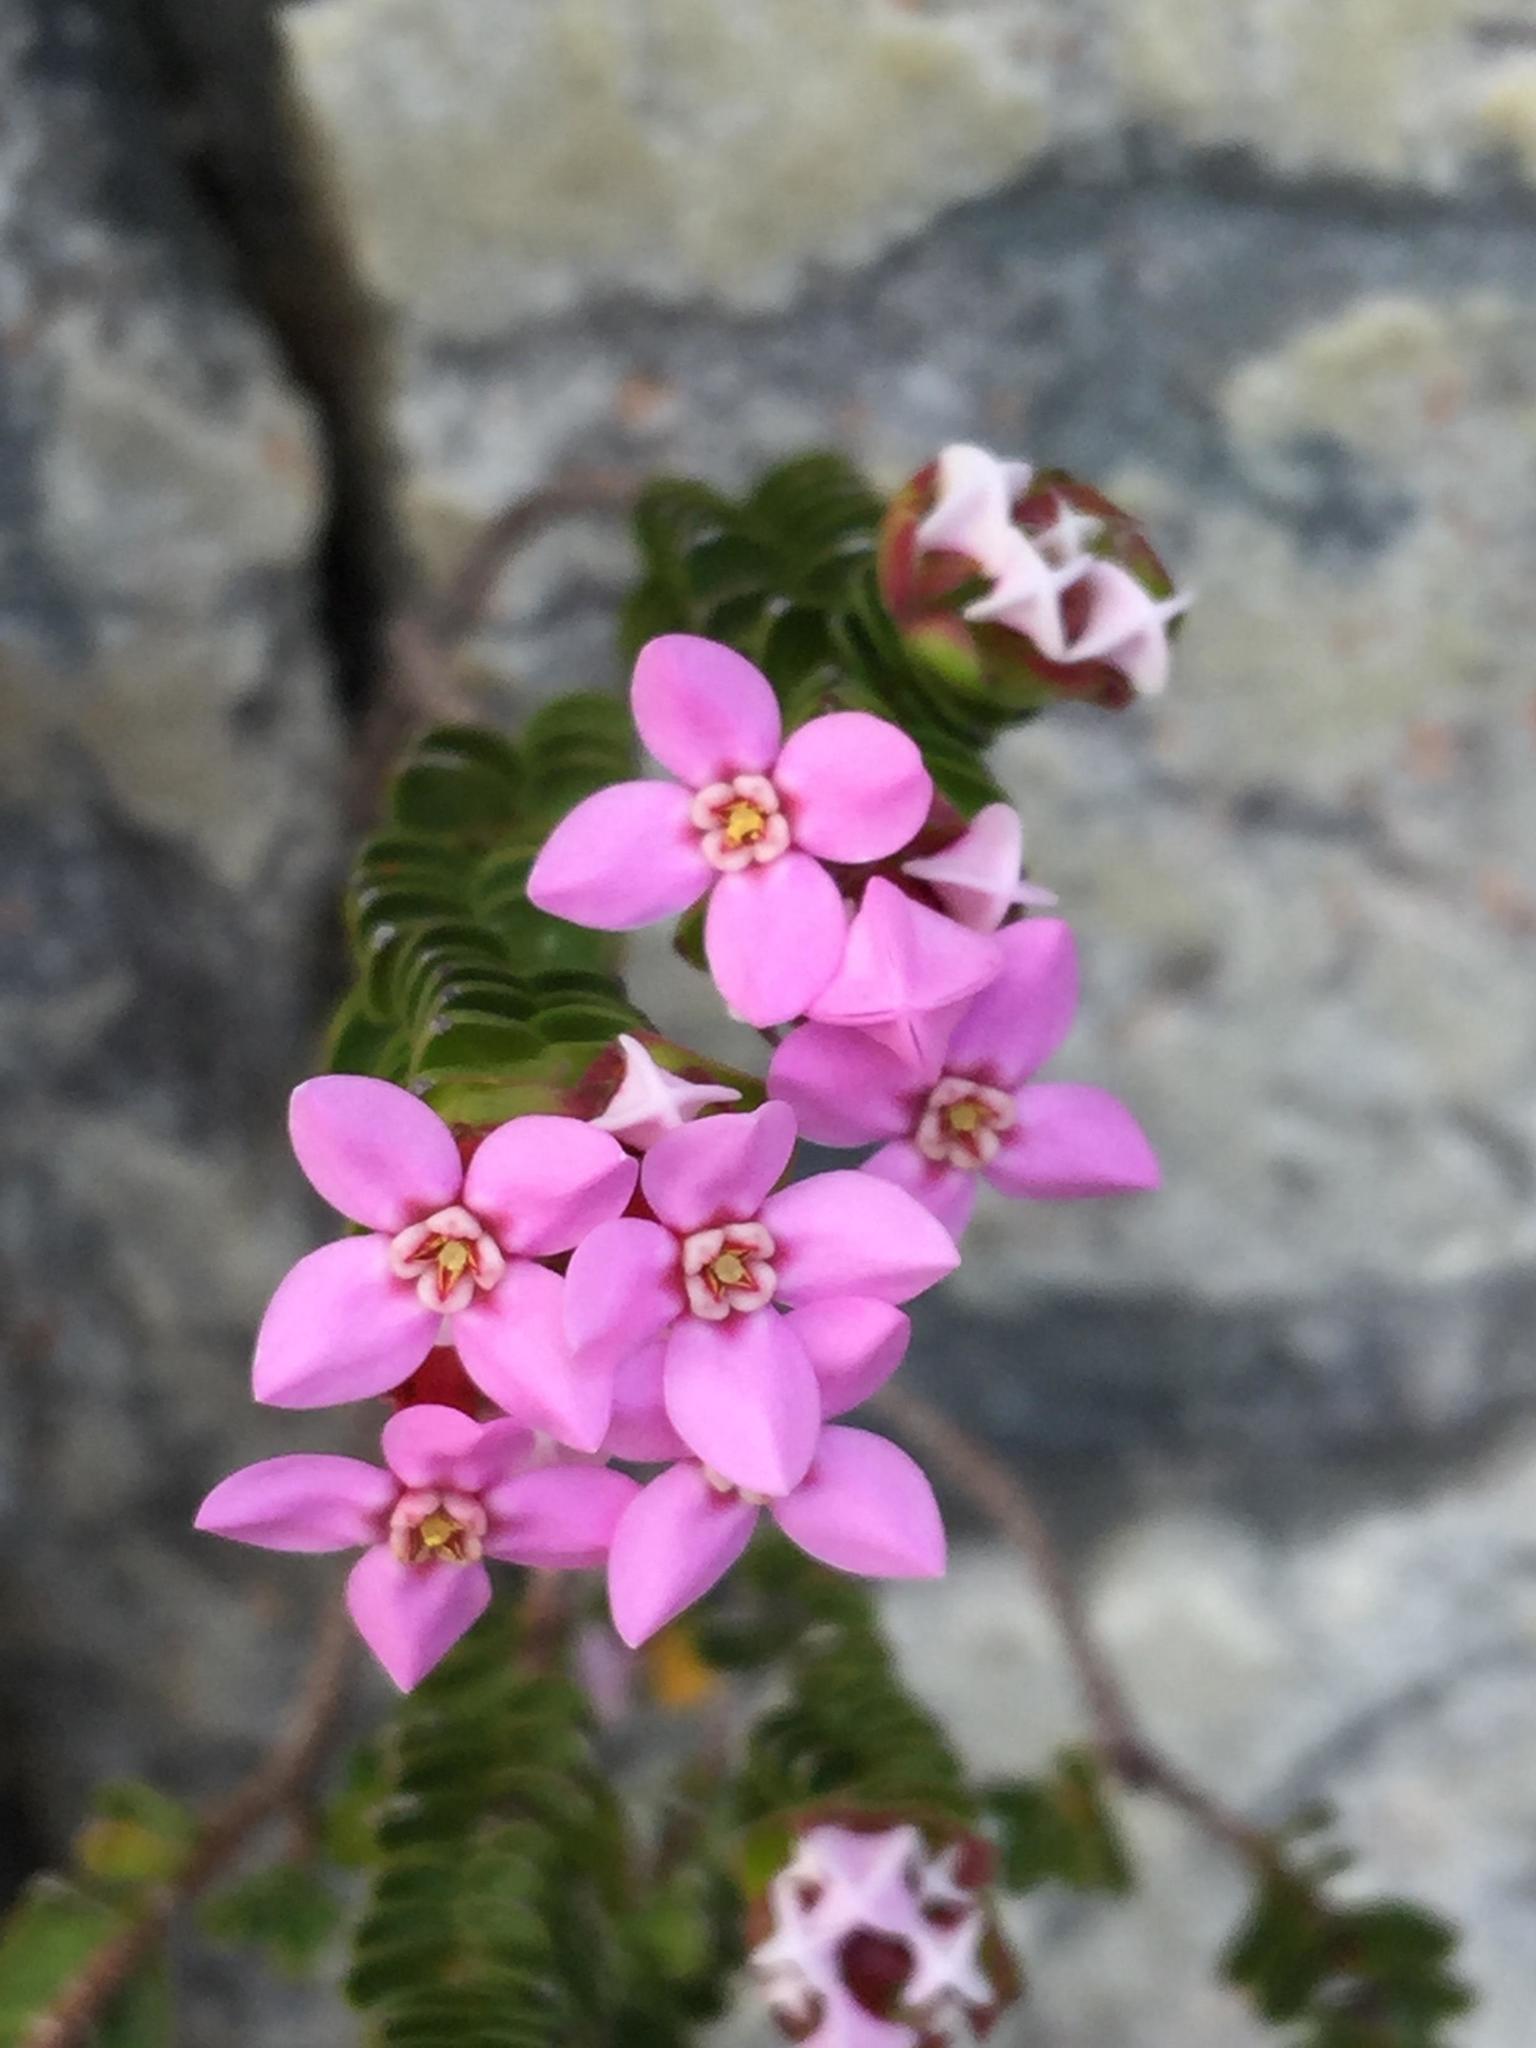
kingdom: Plantae
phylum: Tracheophyta
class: Magnoliopsida
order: Myrtales
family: Penaeaceae
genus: Sonderothamnus
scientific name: Sonderothamnus petraeus
